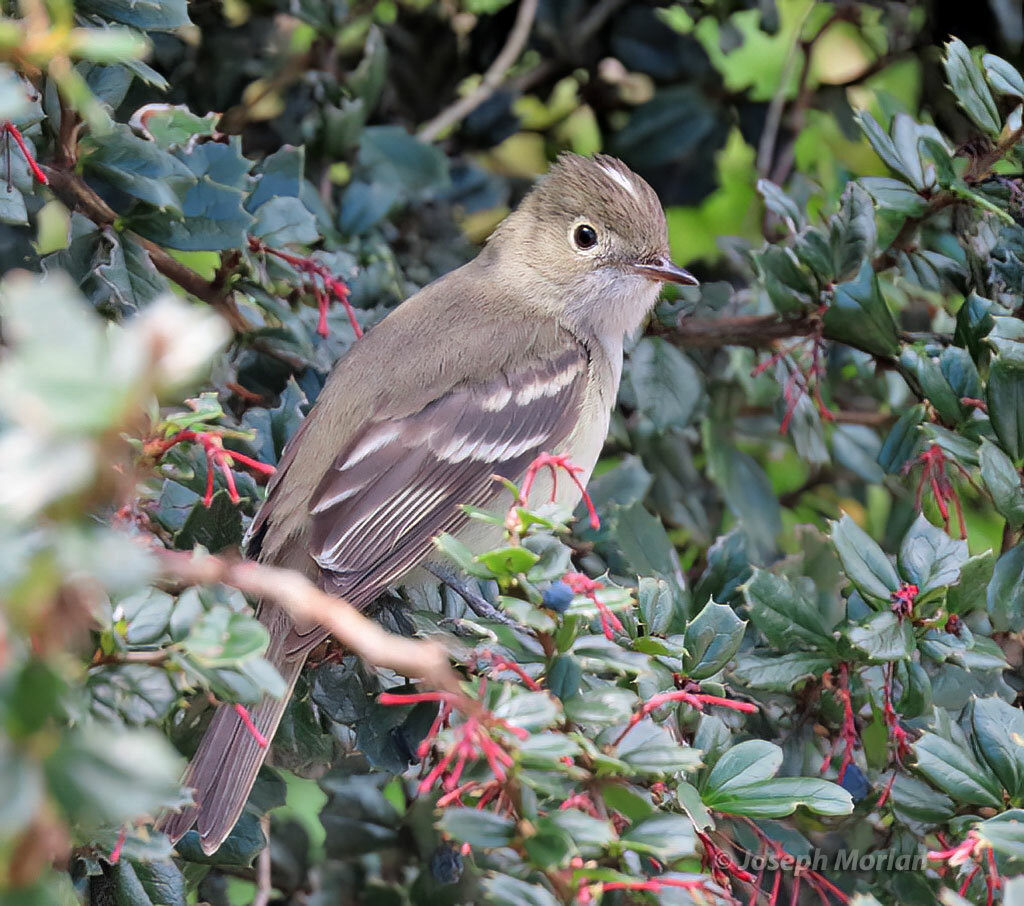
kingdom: Animalia
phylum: Chordata
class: Aves
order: Passeriformes
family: Tyrannidae
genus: Elaenia
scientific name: Elaenia albiceps
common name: White-crested elaenia
